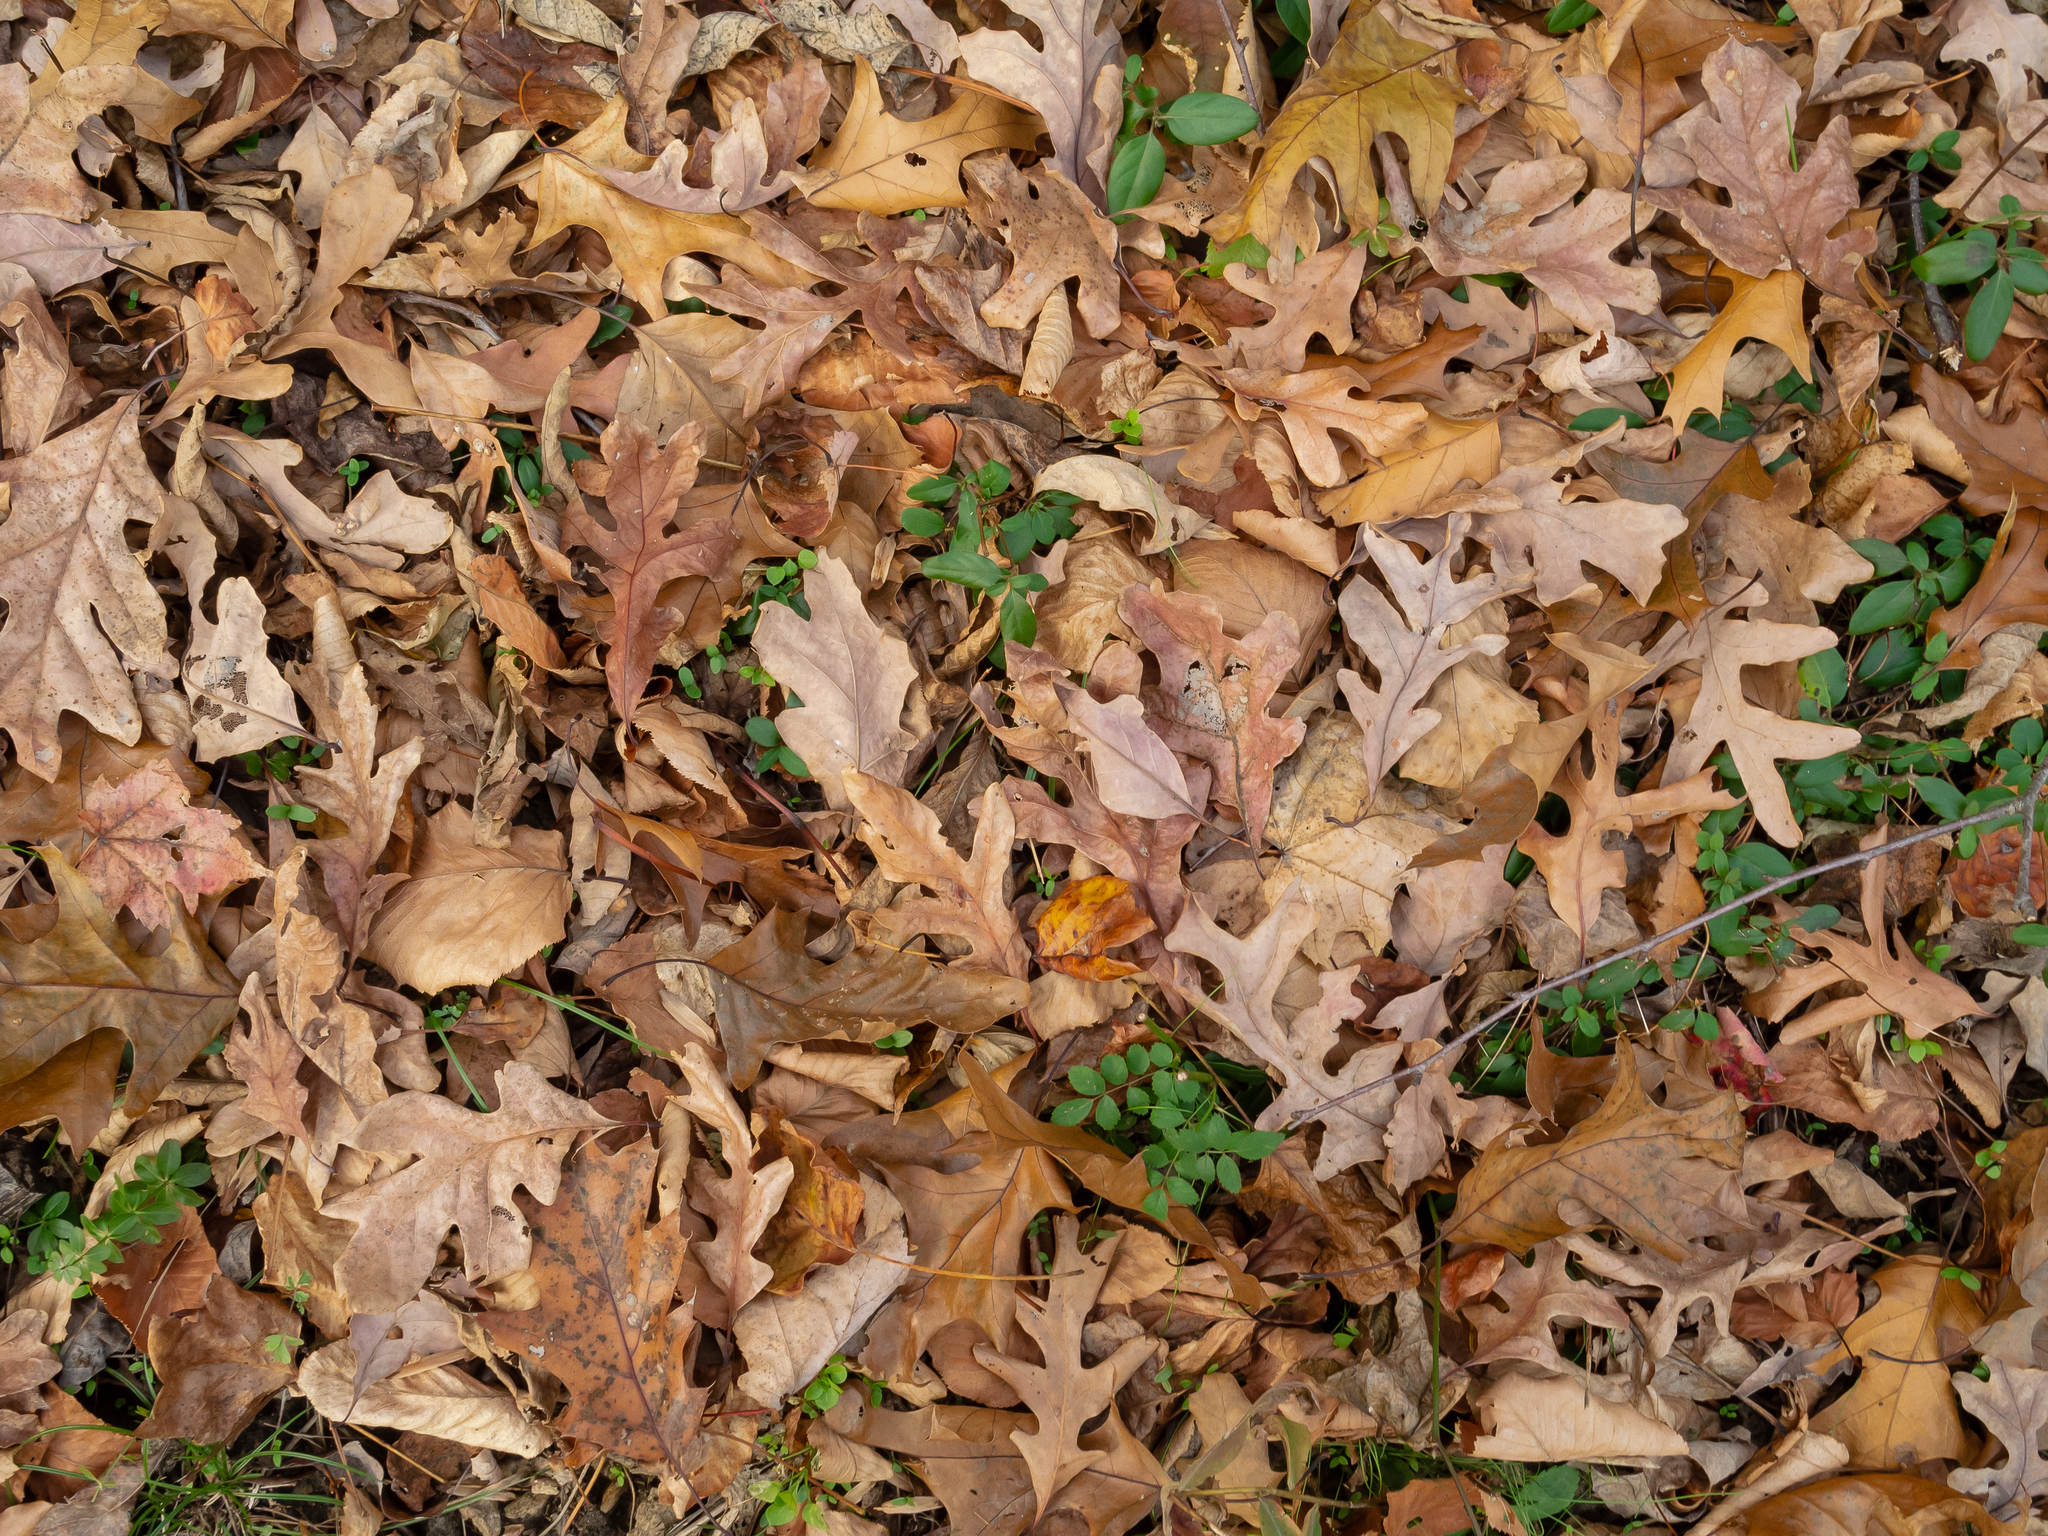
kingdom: Plantae
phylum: Tracheophyta
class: Magnoliopsida
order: Fagales
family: Fagaceae
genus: Quercus
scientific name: Quercus alba
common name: White oak
